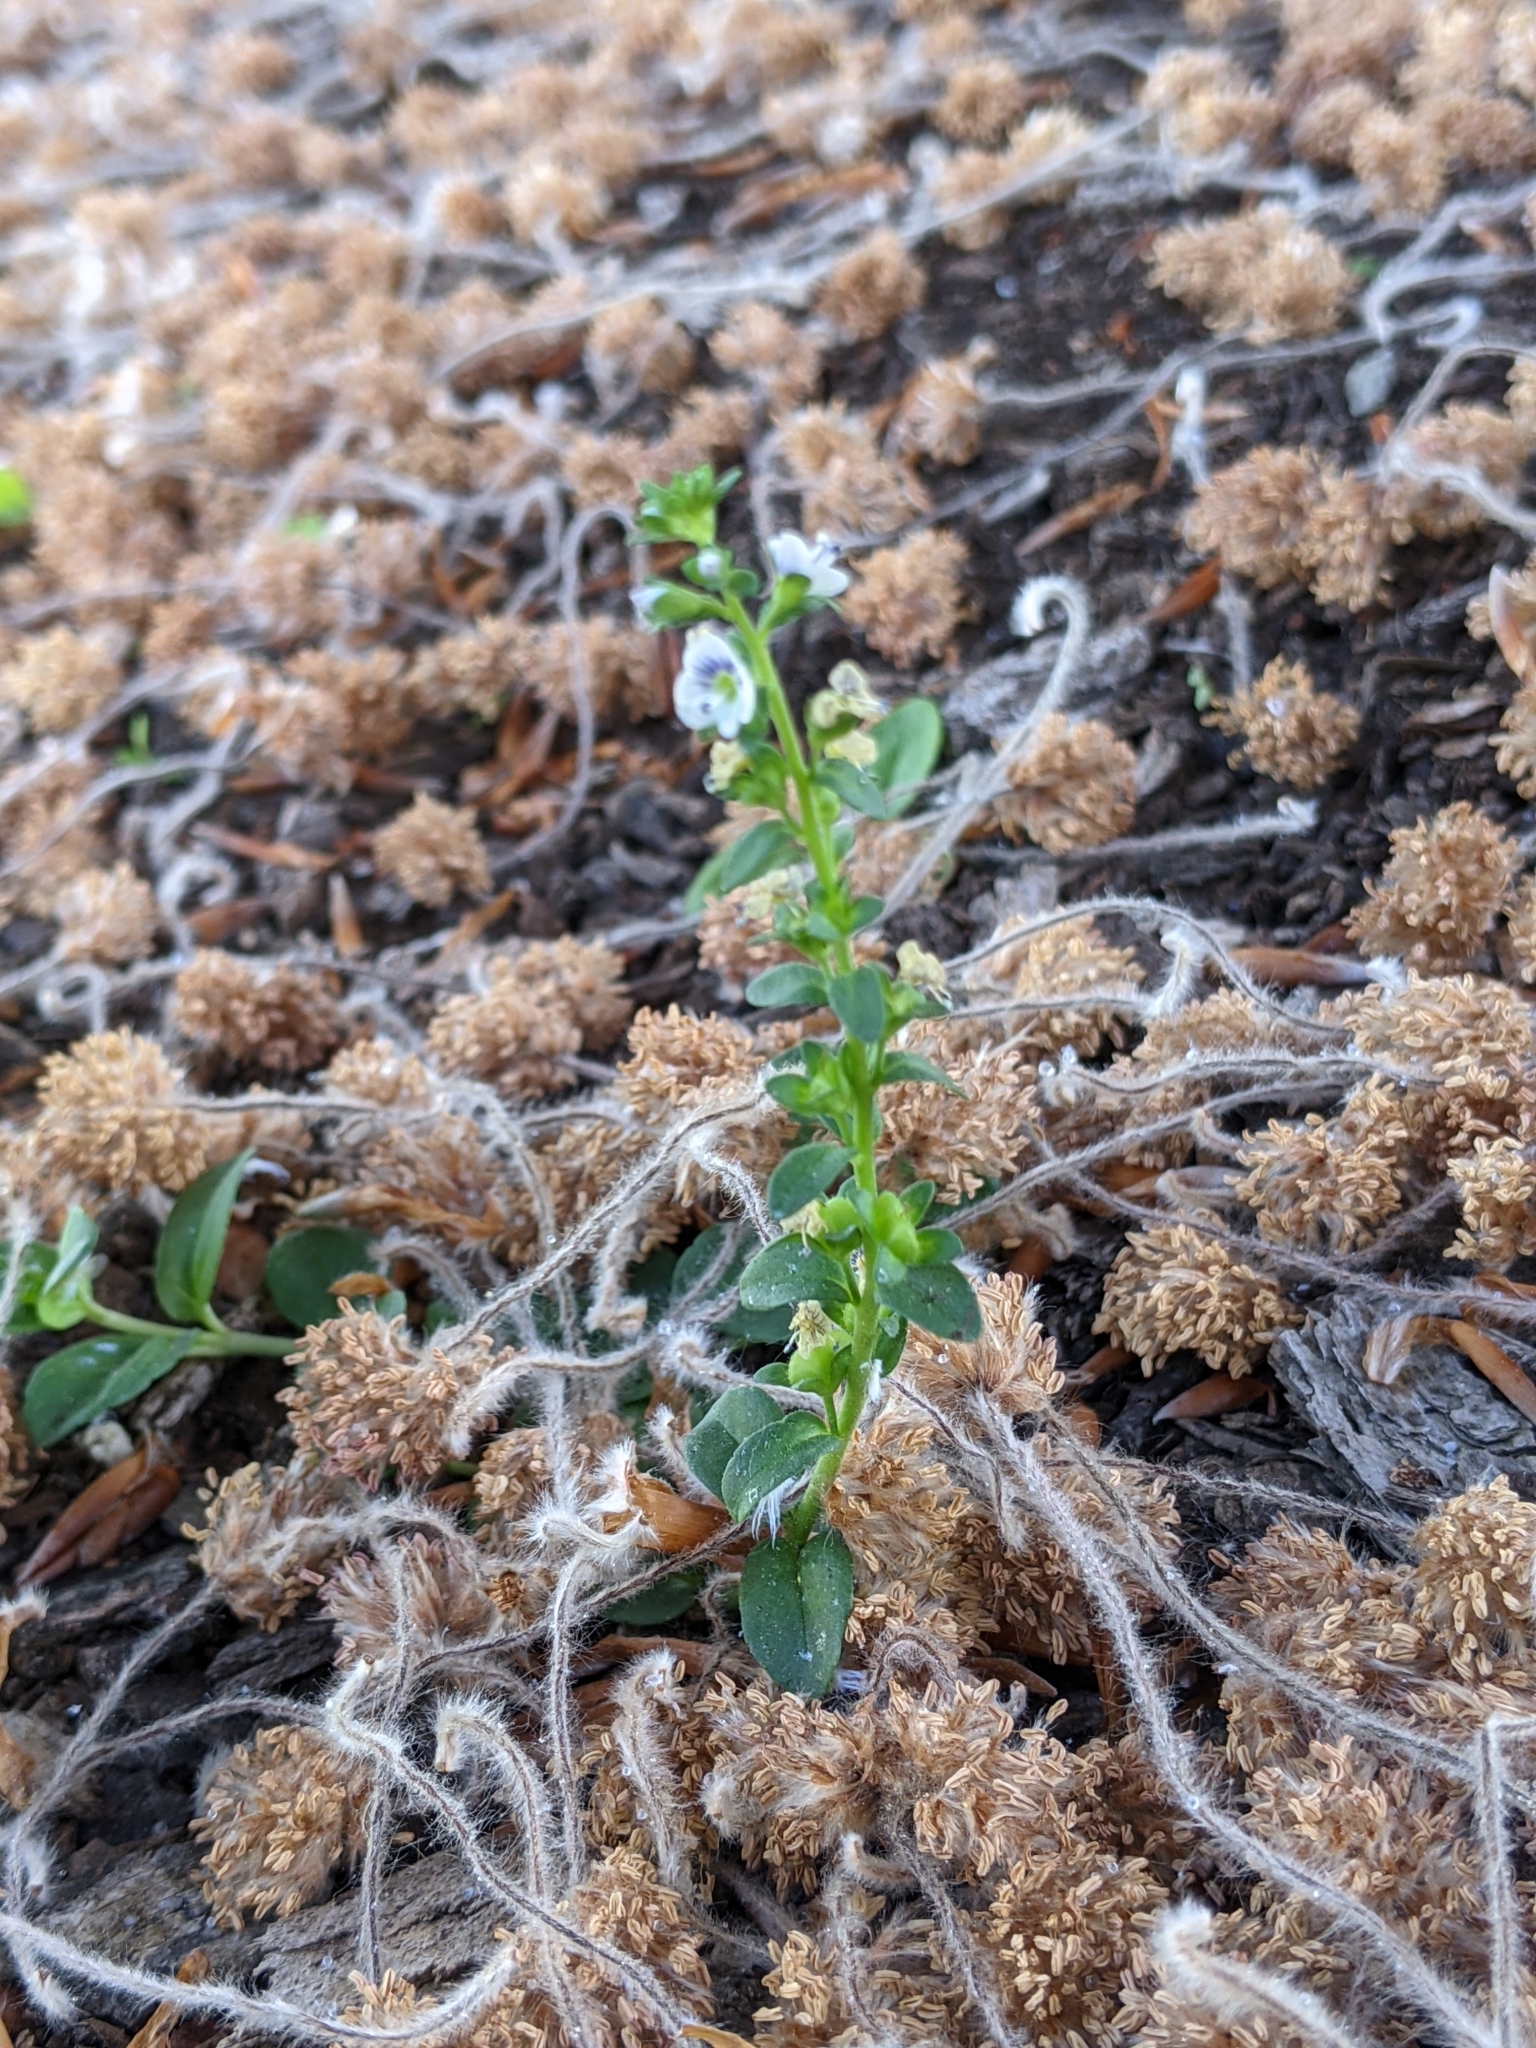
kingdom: Plantae
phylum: Tracheophyta
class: Magnoliopsida
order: Lamiales
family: Plantaginaceae
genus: Veronica
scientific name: Veronica serpyllifolia
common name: Thyme-leaved speedwell
